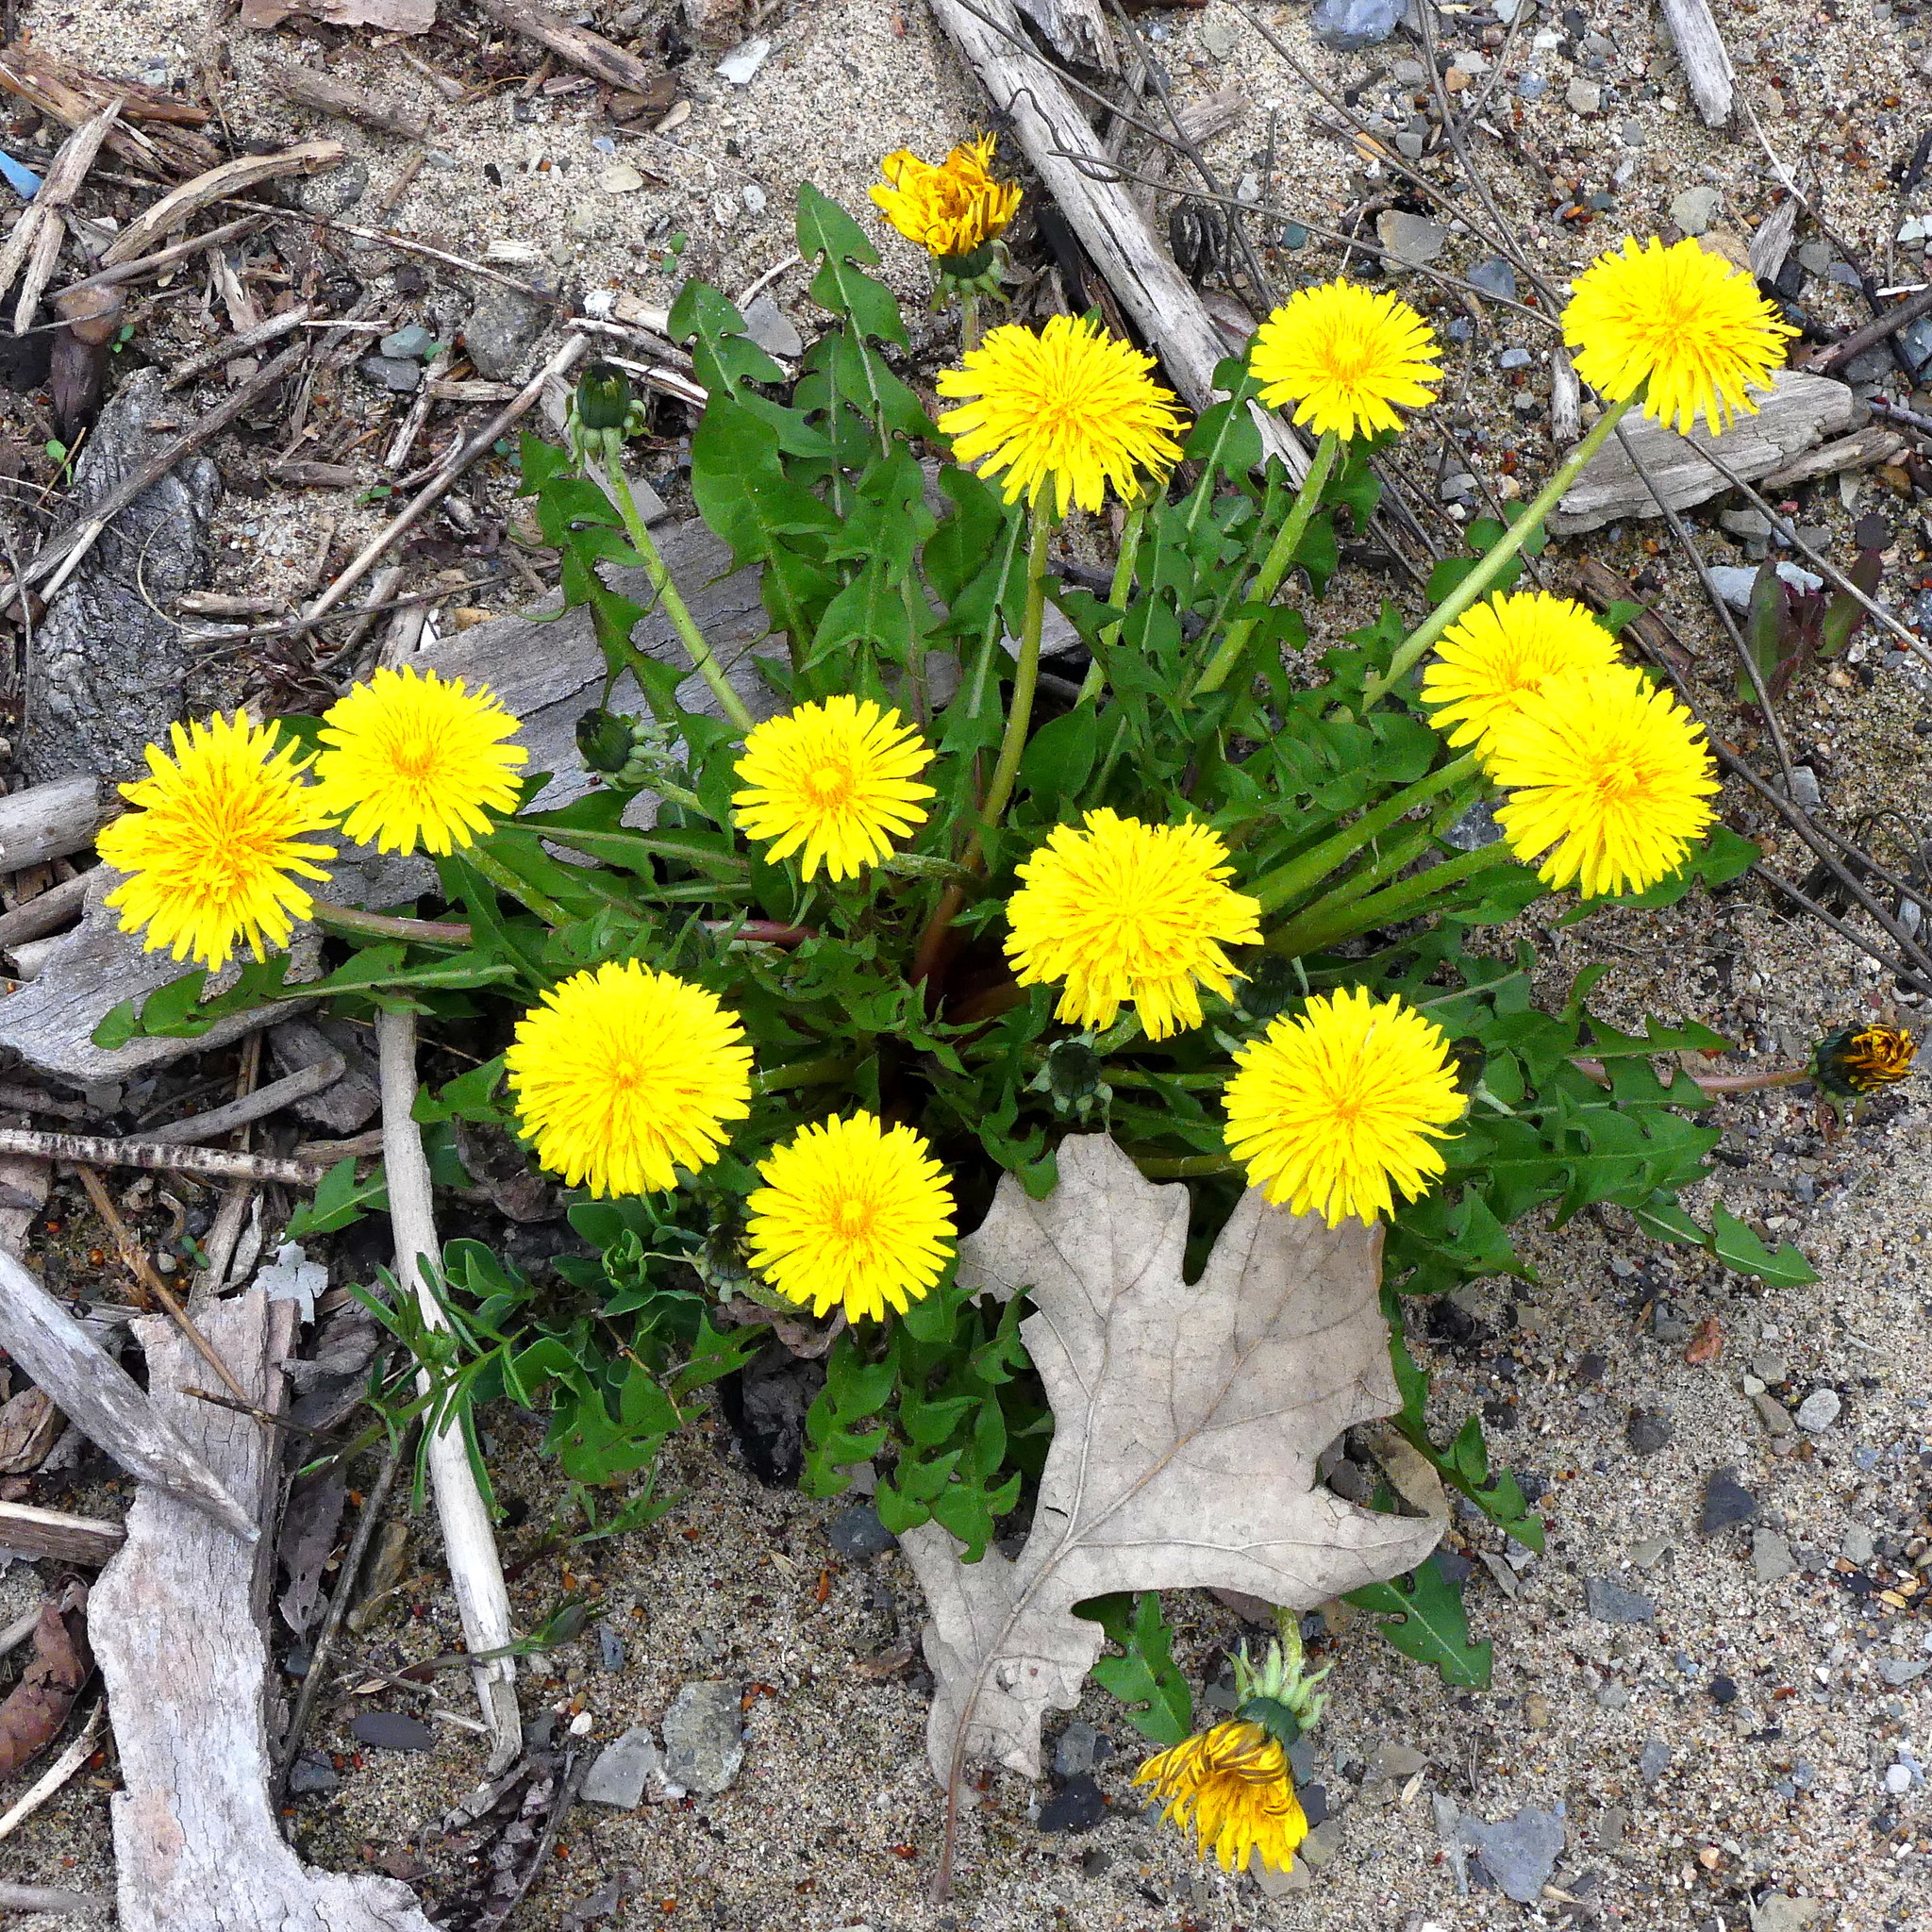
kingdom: Plantae
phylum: Tracheophyta
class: Magnoliopsida
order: Asterales
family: Asteraceae
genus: Taraxacum
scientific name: Taraxacum officinale
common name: Common dandelion
